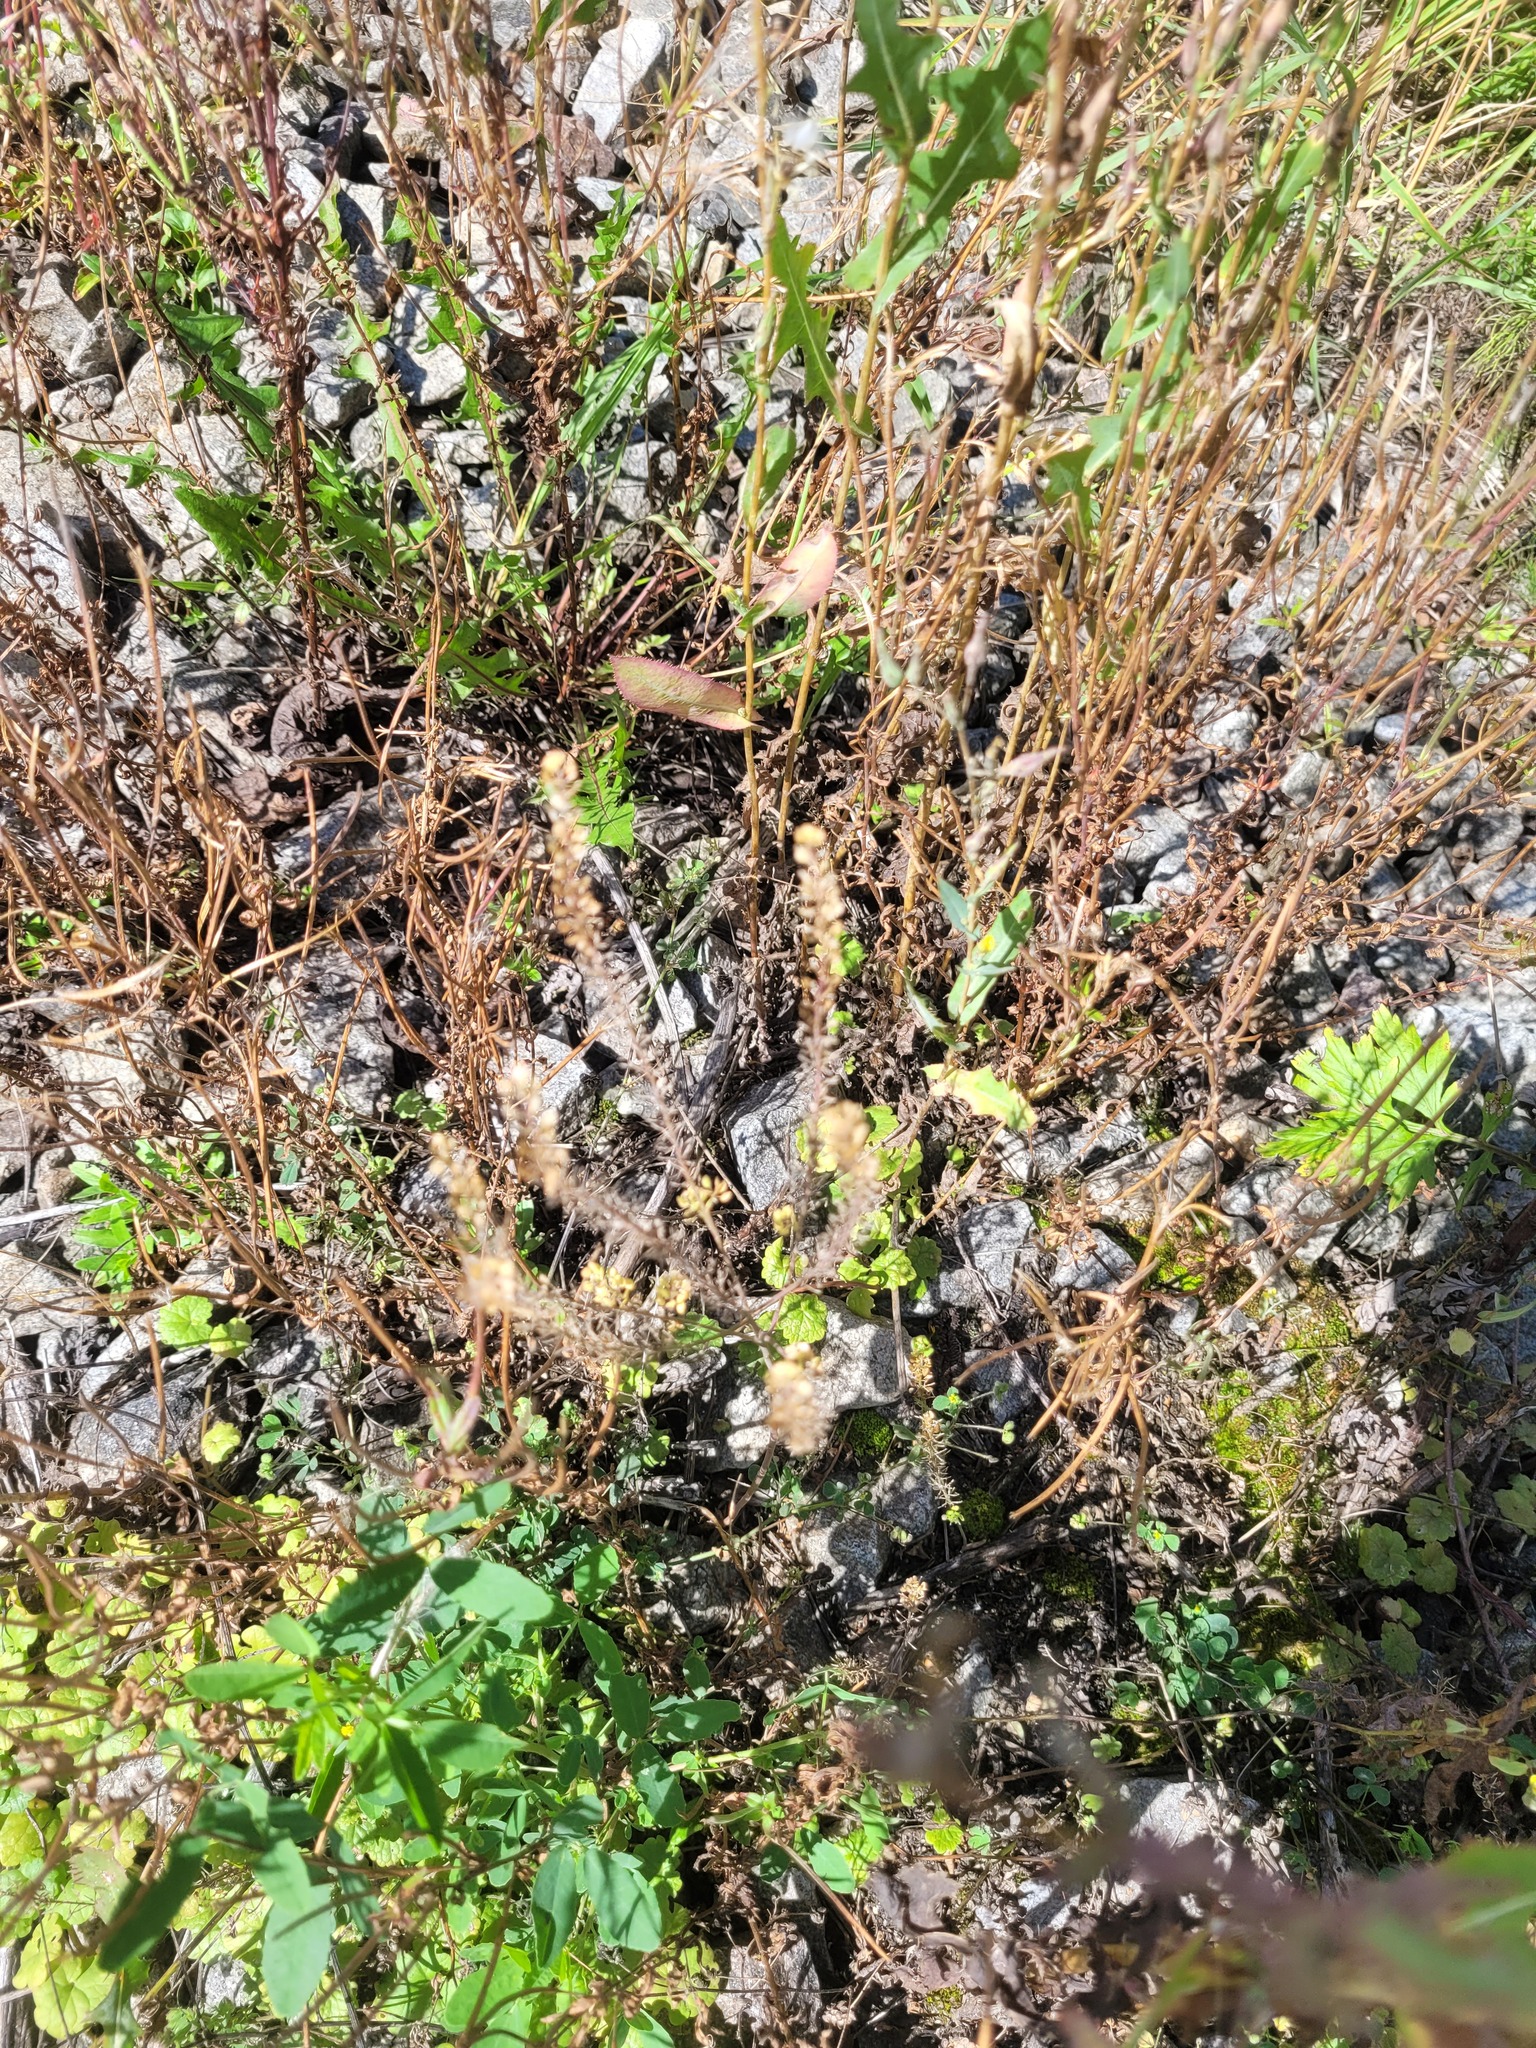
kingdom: Plantae
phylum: Tracheophyta
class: Magnoliopsida
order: Brassicales
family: Brassicaceae
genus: Lepidium
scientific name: Lepidium densiflorum
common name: Miner's pepperwort
